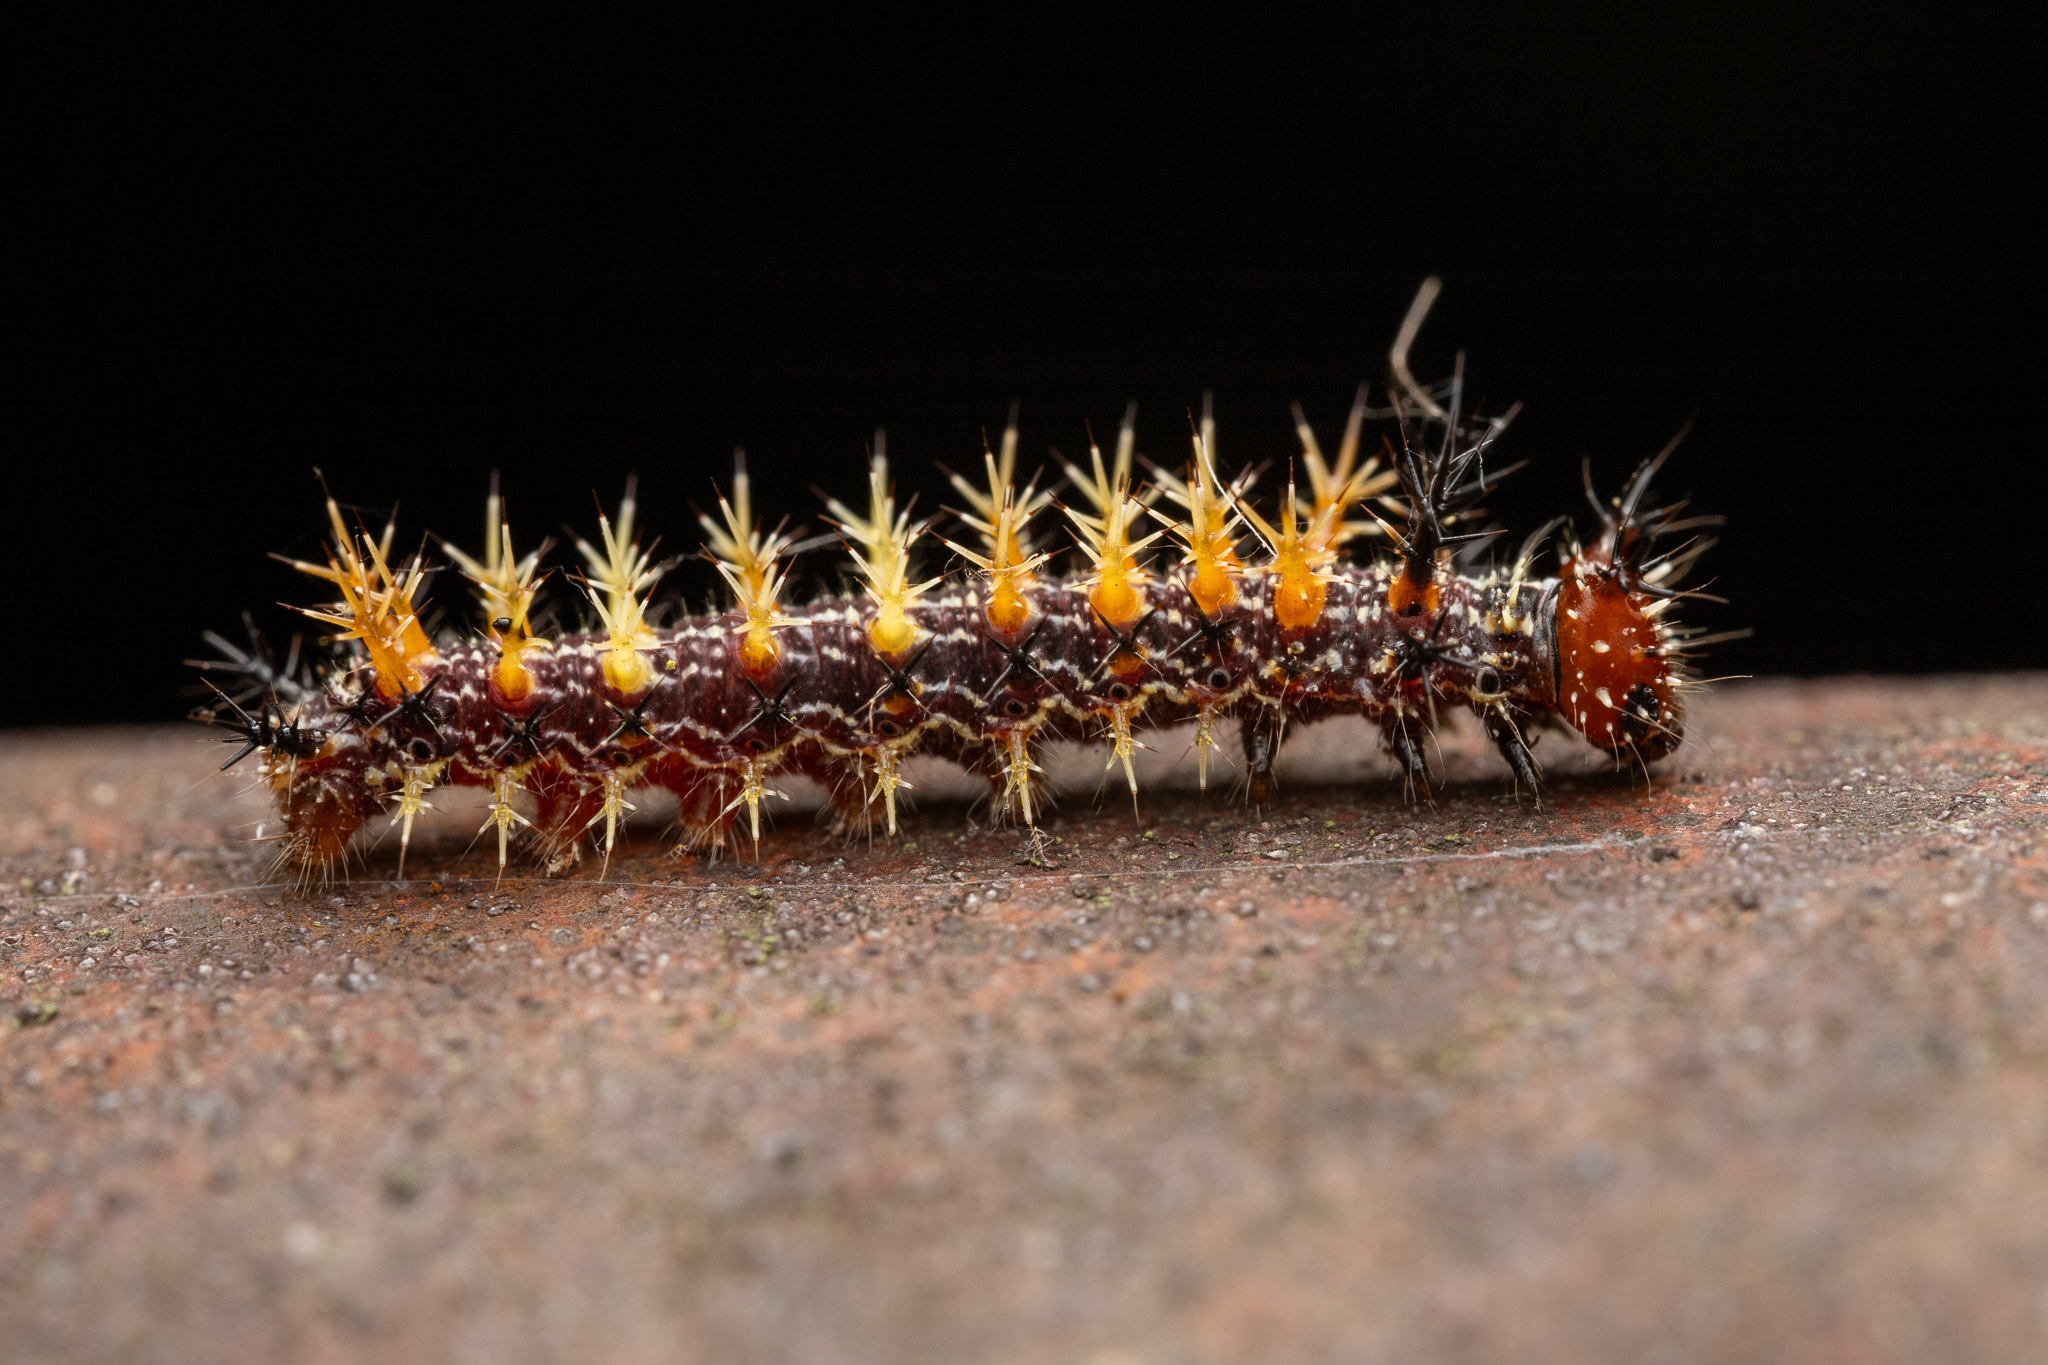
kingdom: Animalia
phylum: Arthropoda
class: Insecta
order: Lepidoptera
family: Nymphalidae
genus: Polygonia
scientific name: Polygonia interrogationis
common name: Question mark
